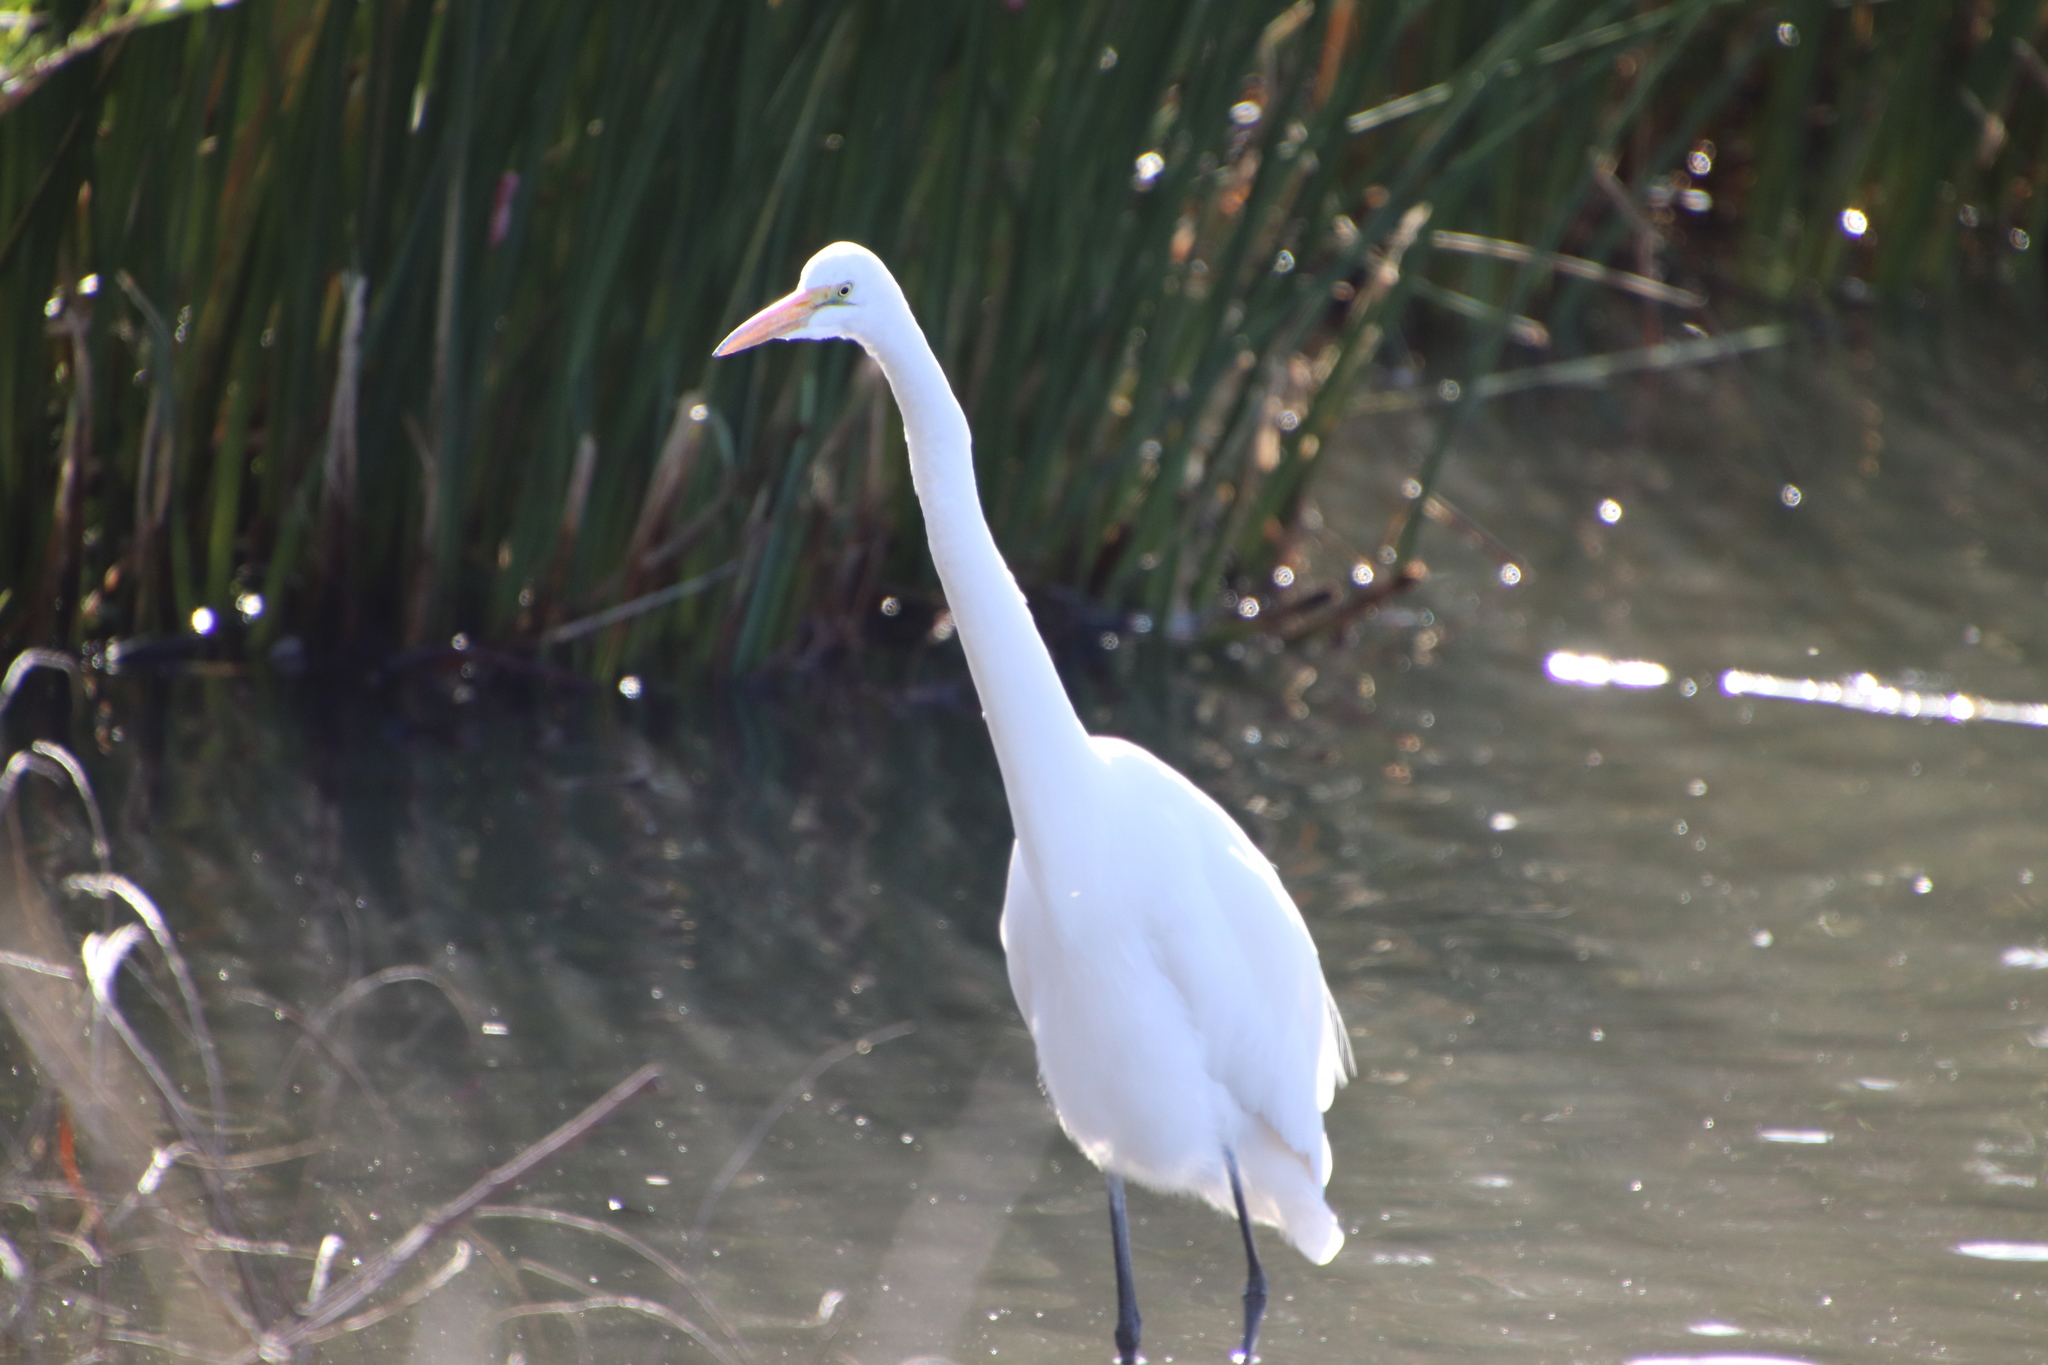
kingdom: Animalia
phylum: Chordata
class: Aves
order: Pelecaniformes
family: Ardeidae
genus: Ardea
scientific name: Ardea alba
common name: Great egret
